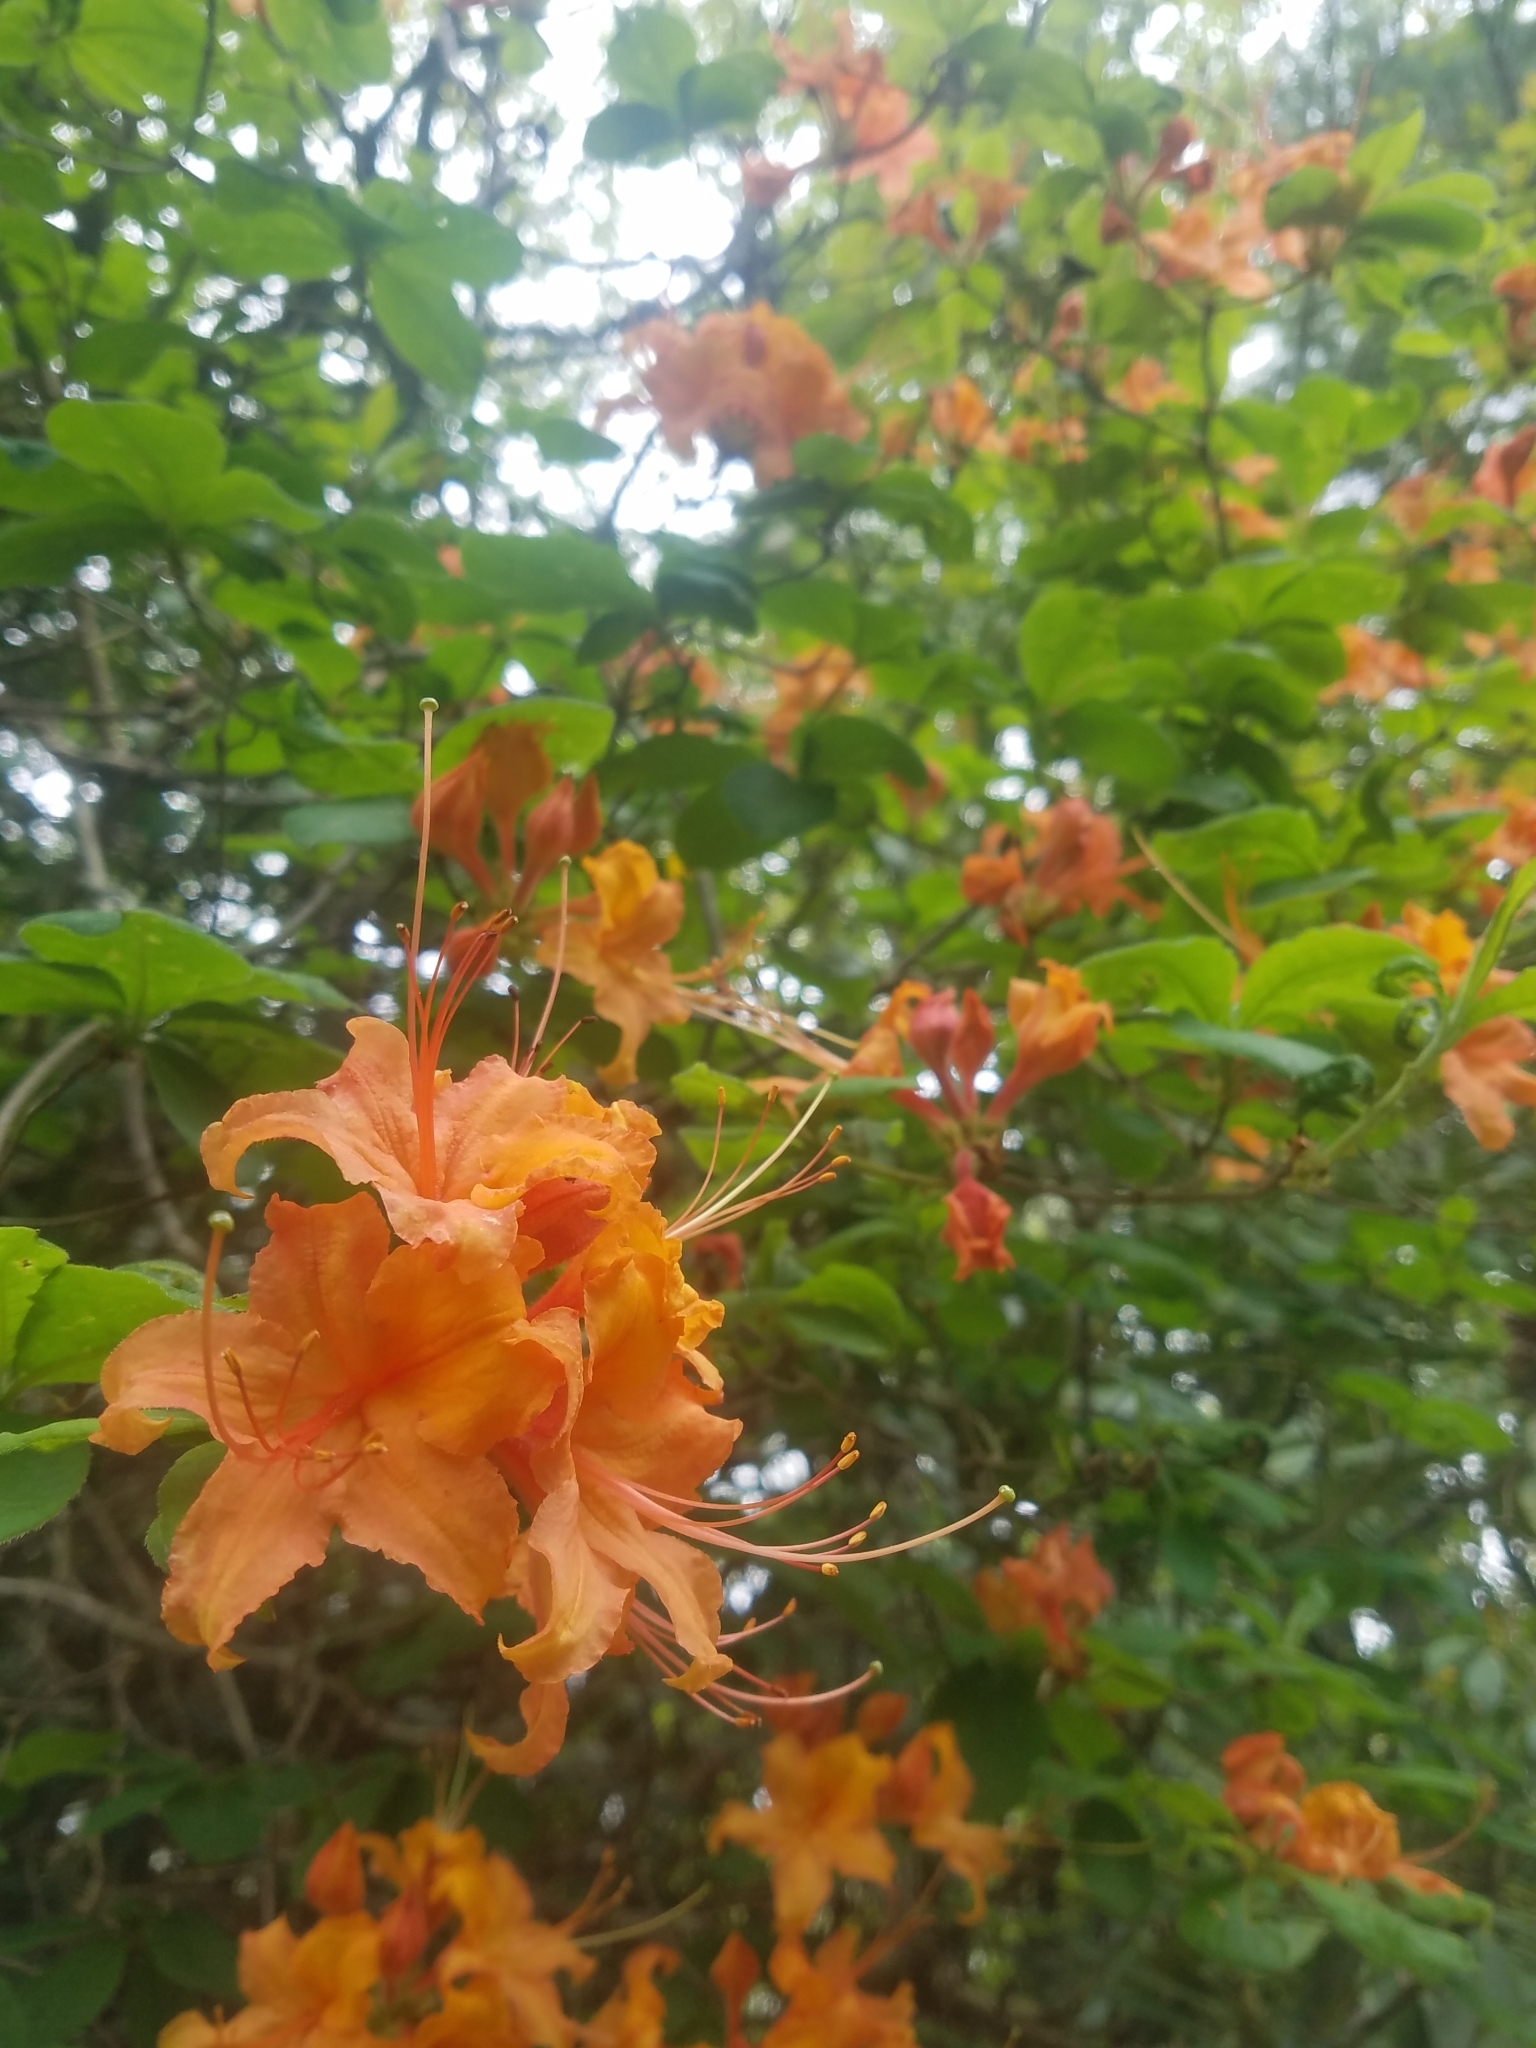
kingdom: Plantae
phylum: Tracheophyta
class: Magnoliopsida
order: Ericales
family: Ericaceae
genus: Rhododendron
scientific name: Rhododendron calendulaceum
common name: Flame azalea
